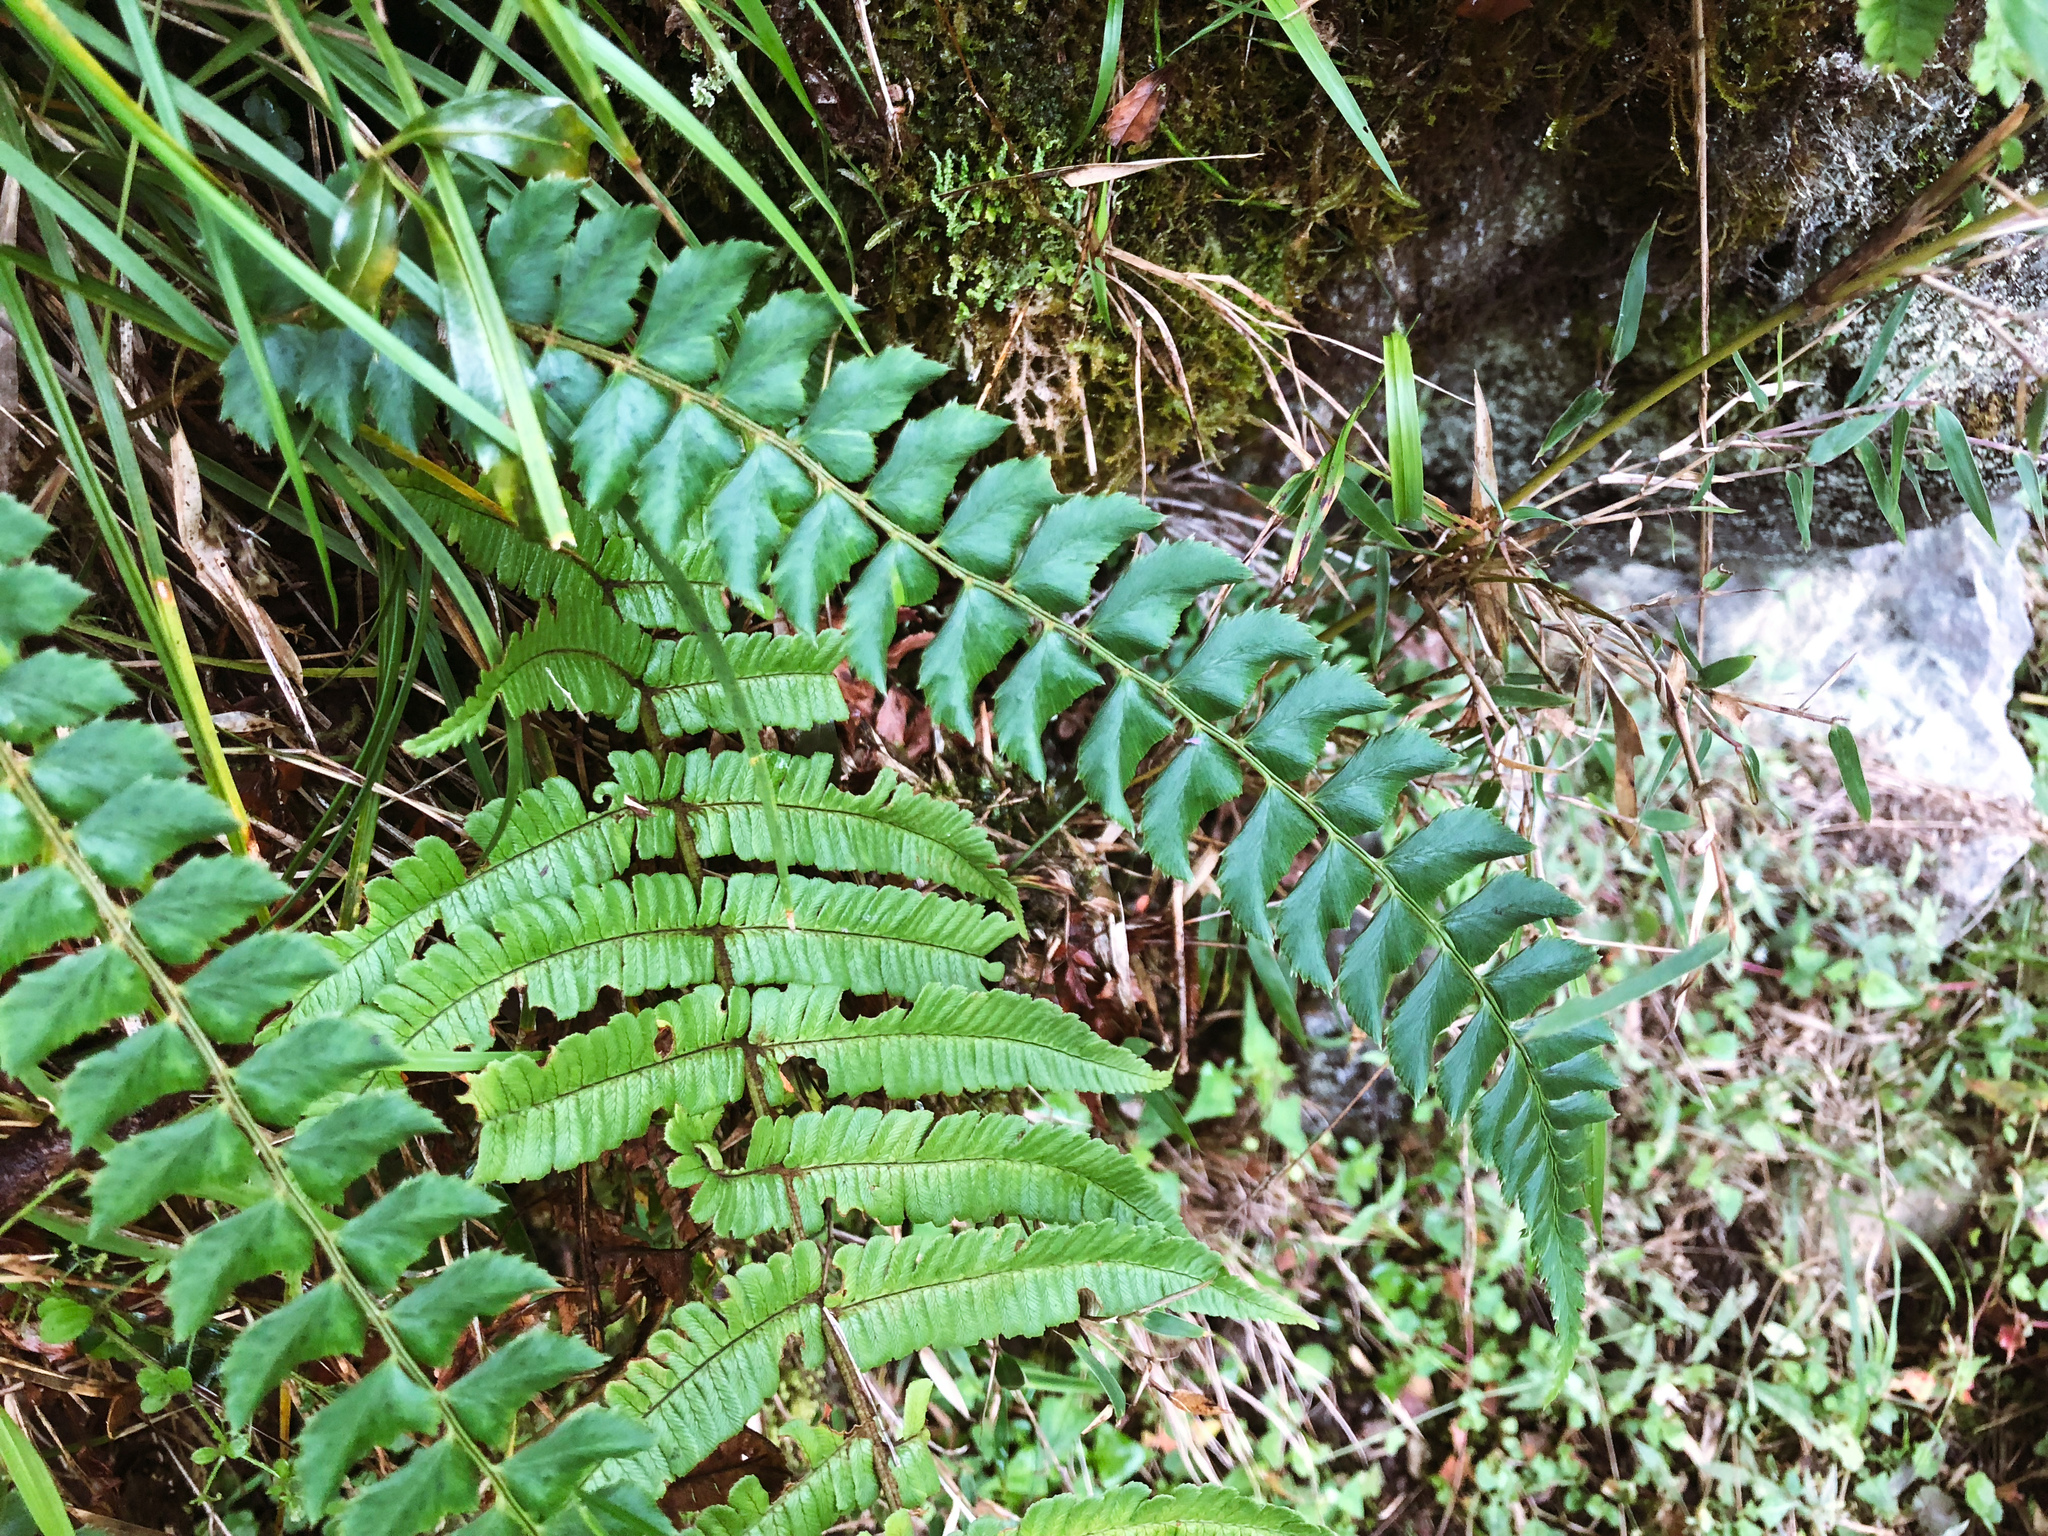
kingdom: Plantae
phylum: Tracheophyta
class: Polypodiopsida
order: Polypodiales
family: Dryopteridaceae
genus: Polystichum
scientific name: Polystichum nepalense
